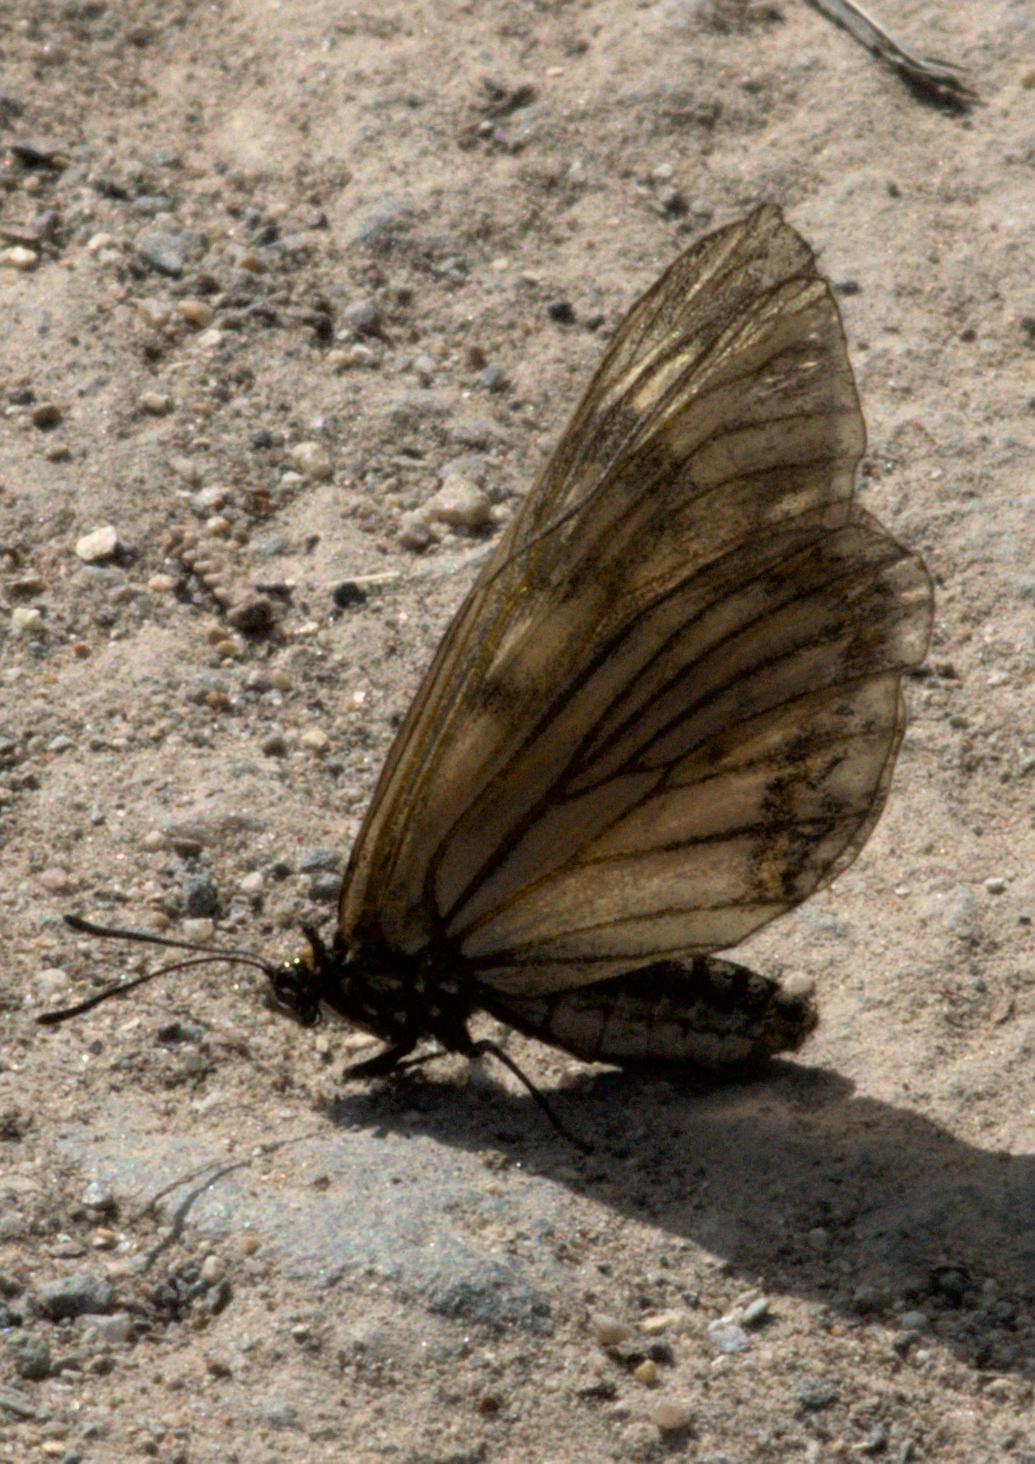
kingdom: Animalia
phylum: Arthropoda
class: Insecta
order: Lepidoptera
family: Nymphalidae
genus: Acraea
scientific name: Acraea Telchinia issoria
